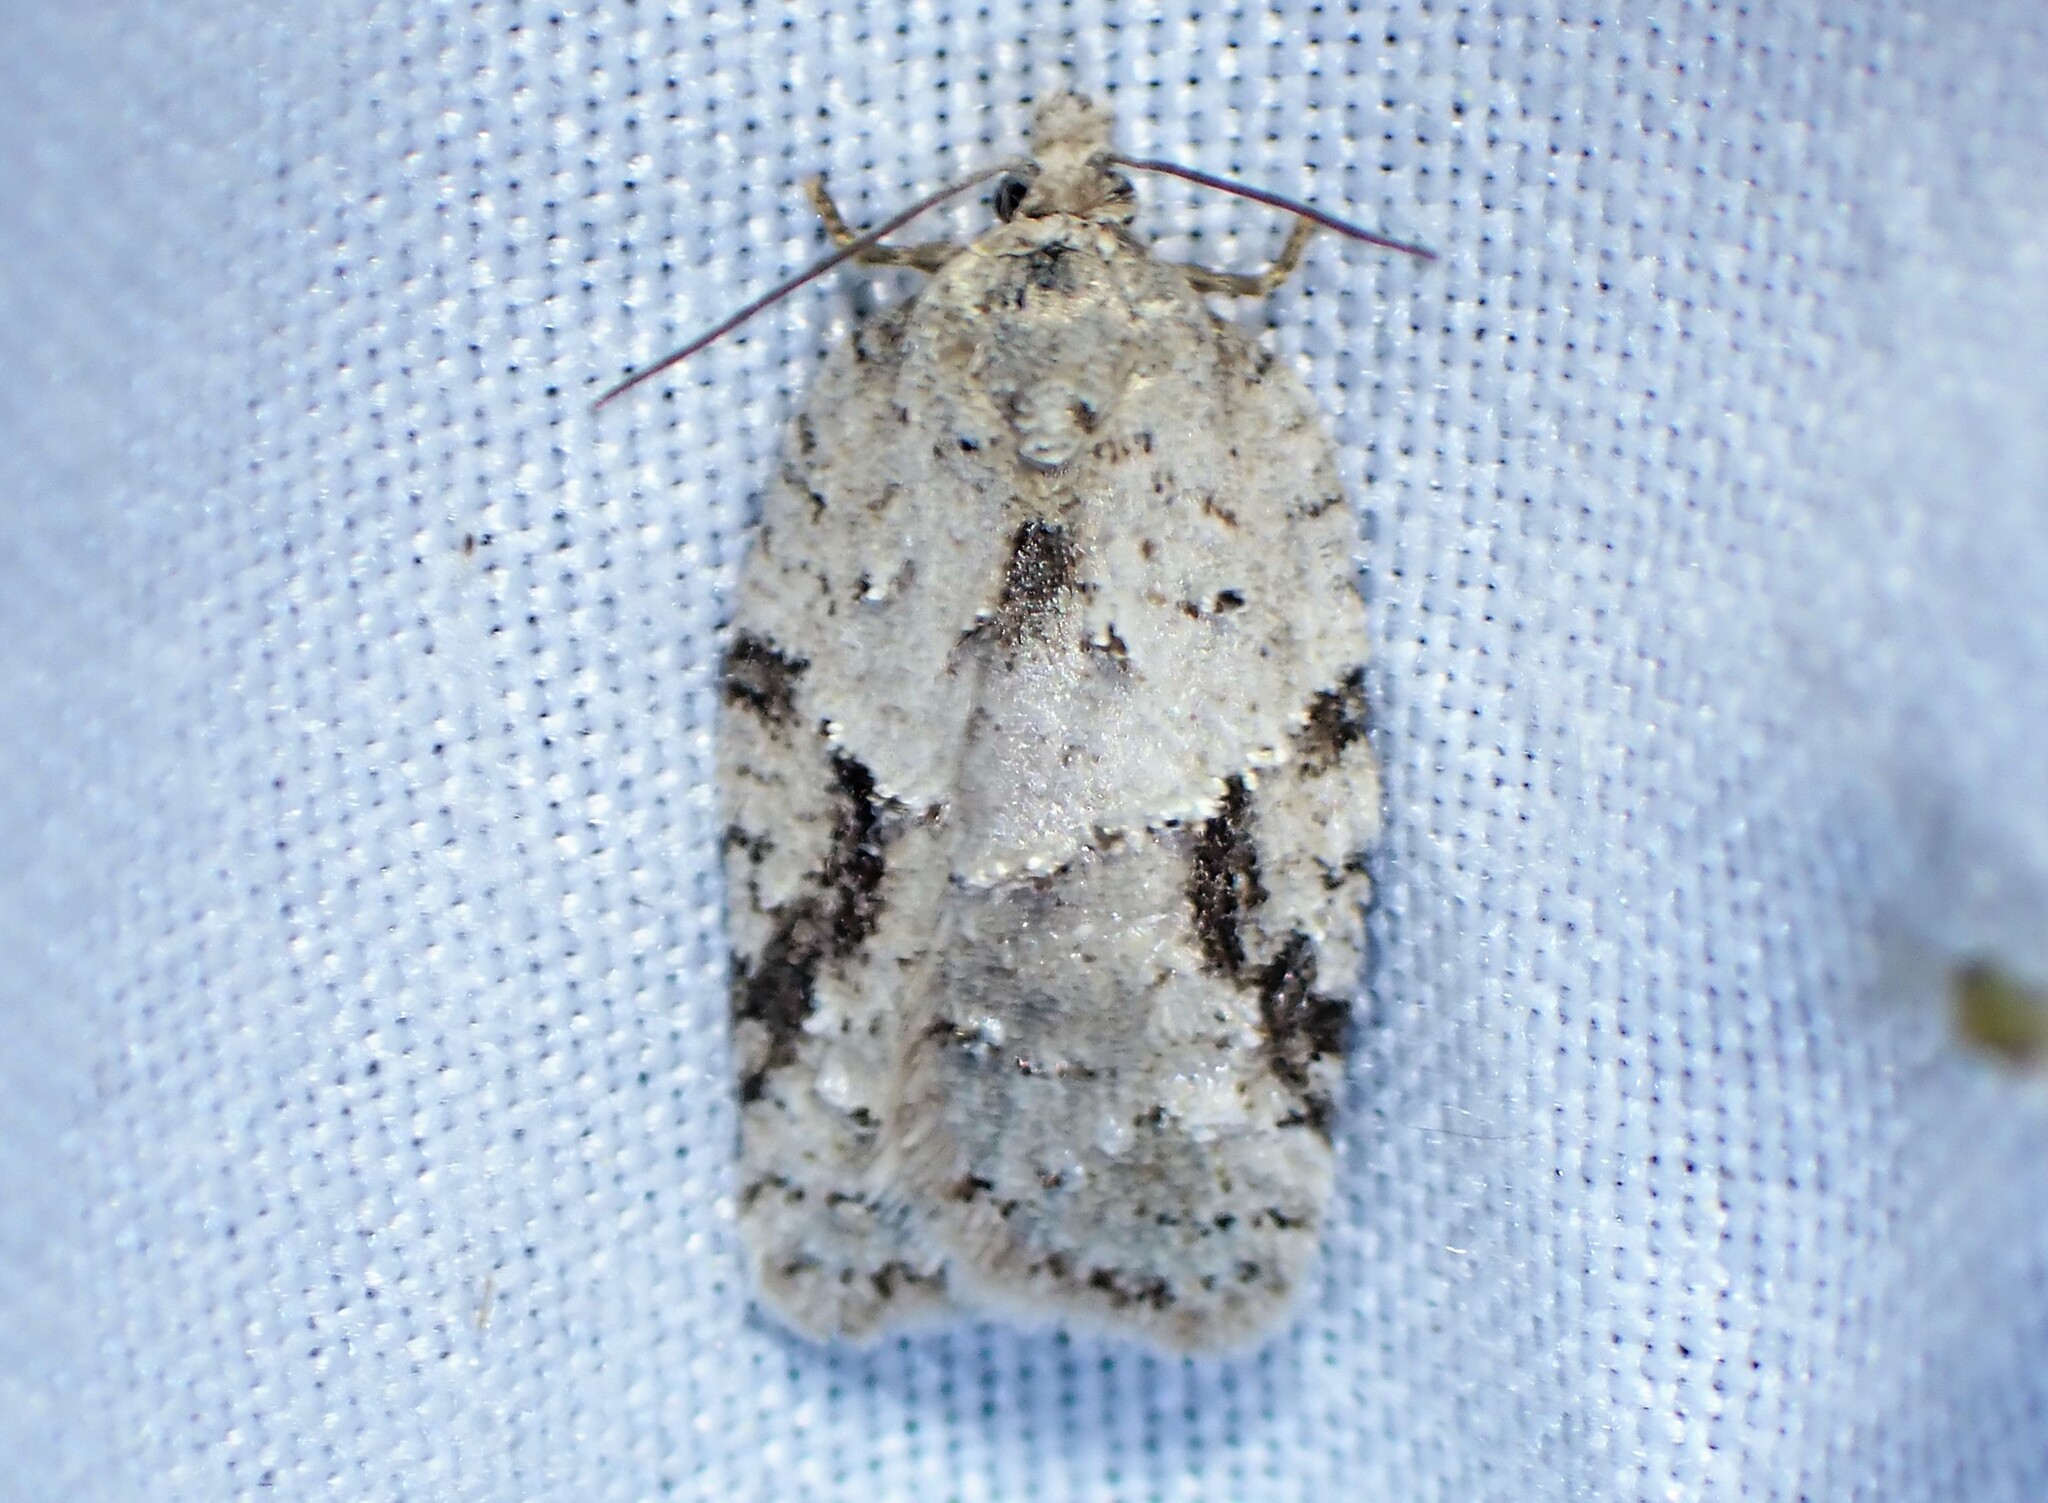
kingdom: Animalia
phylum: Arthropoda
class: Insecta
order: Lepidoptera
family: Tortricidae
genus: Acleris
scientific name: Acleris placidana
